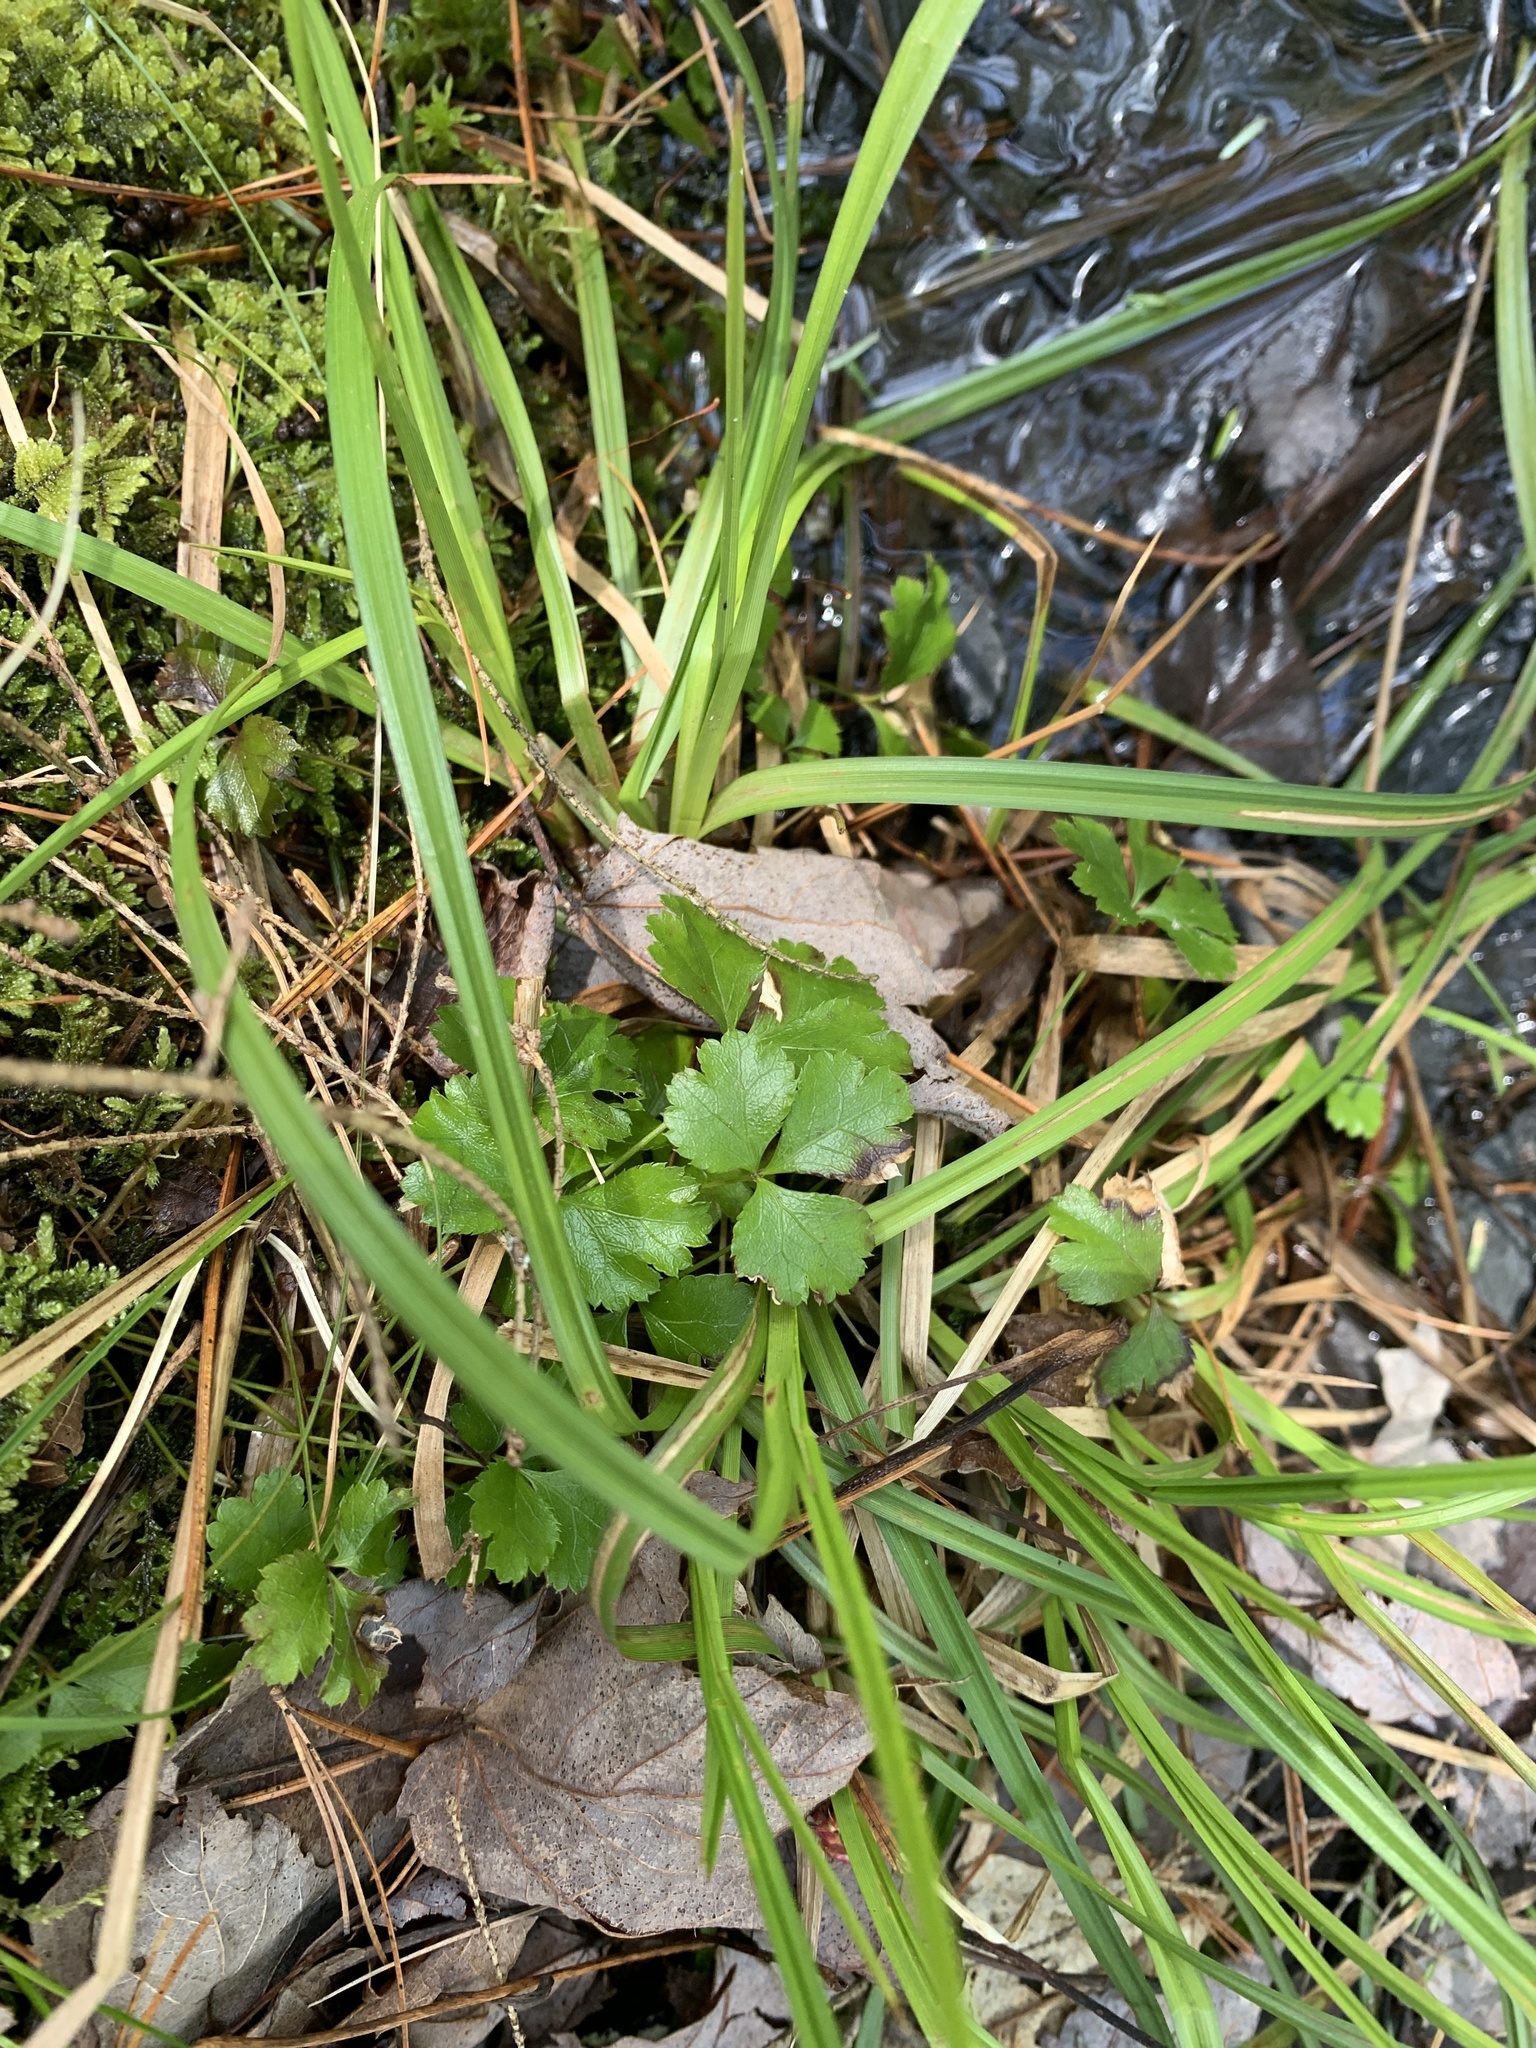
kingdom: Plantae
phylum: Tracheophyta
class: Magnoliopsida
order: Ranunculales
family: Ranunculaceae
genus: Coptis
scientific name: Coptis trifolia
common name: Canker-root
